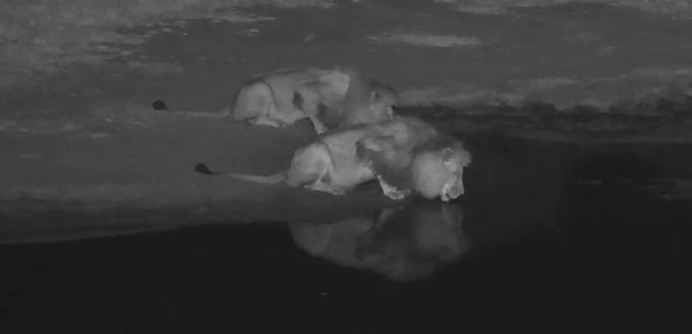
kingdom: Animalia
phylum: Chordata
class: Mammalia
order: Carnivora
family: Felidae
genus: Panthera
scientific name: Panthera leo
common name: Lion
